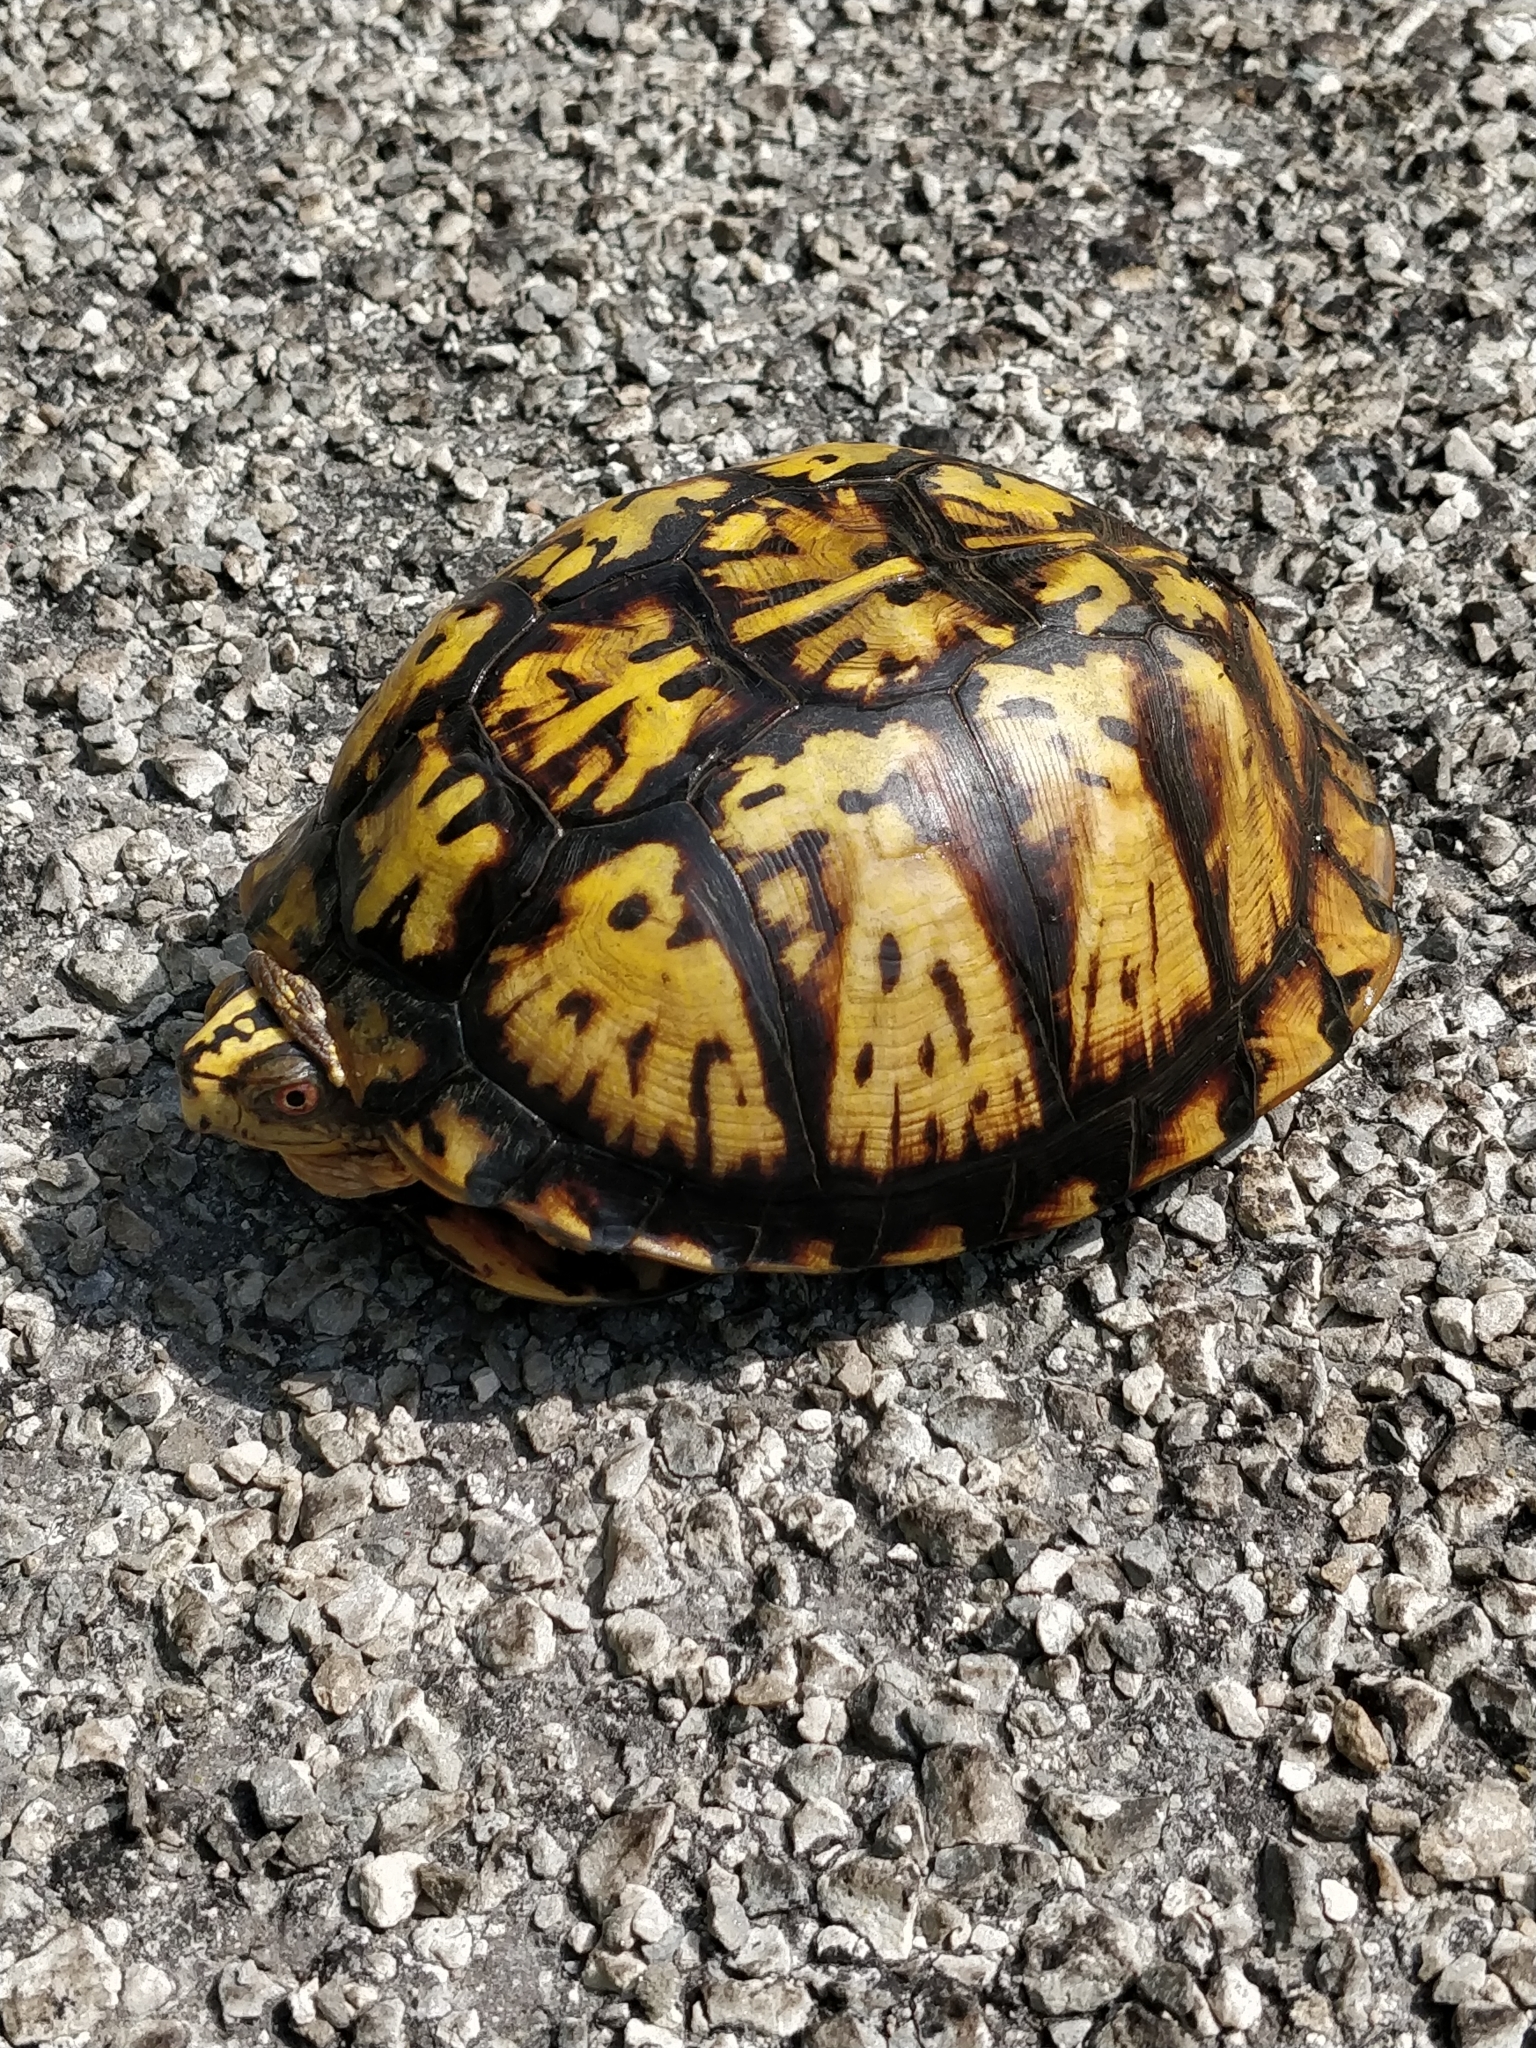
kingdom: Animalia
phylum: Chordata
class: Testudines
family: Emydidae
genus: Terrapene
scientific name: Terrapene carolina
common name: Common box turtle
